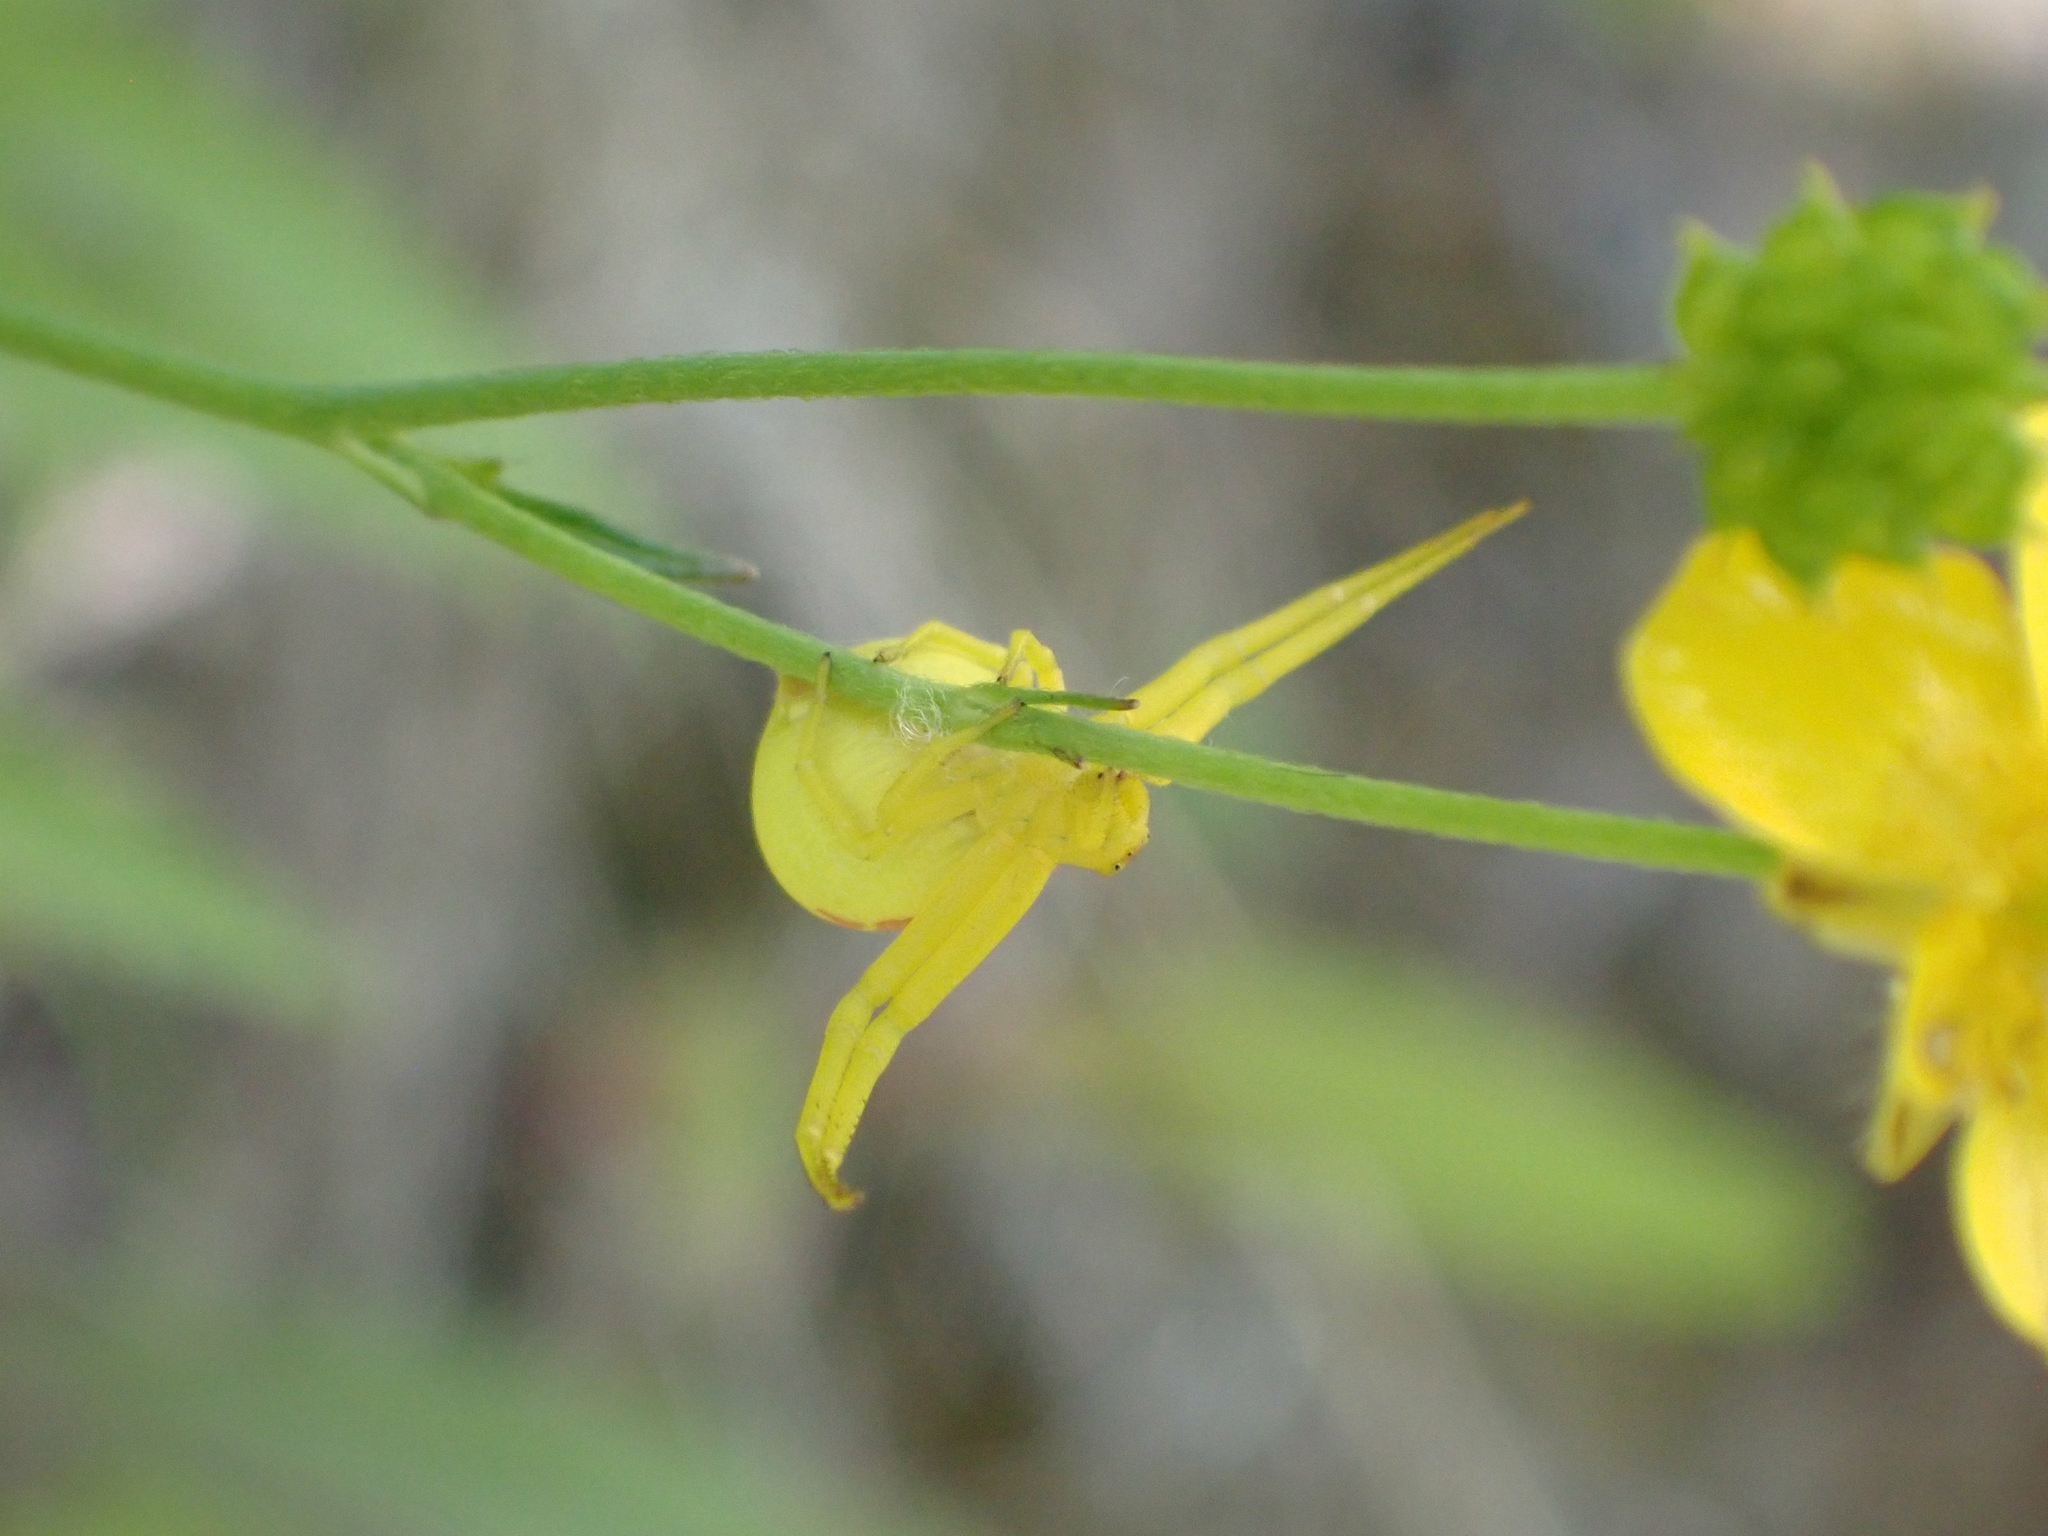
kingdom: Animalia
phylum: Arthropoda
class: Arachnida
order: Araneae
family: Thomisidae
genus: Misumena
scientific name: Misumena vatia
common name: Goldenrod crab spider
